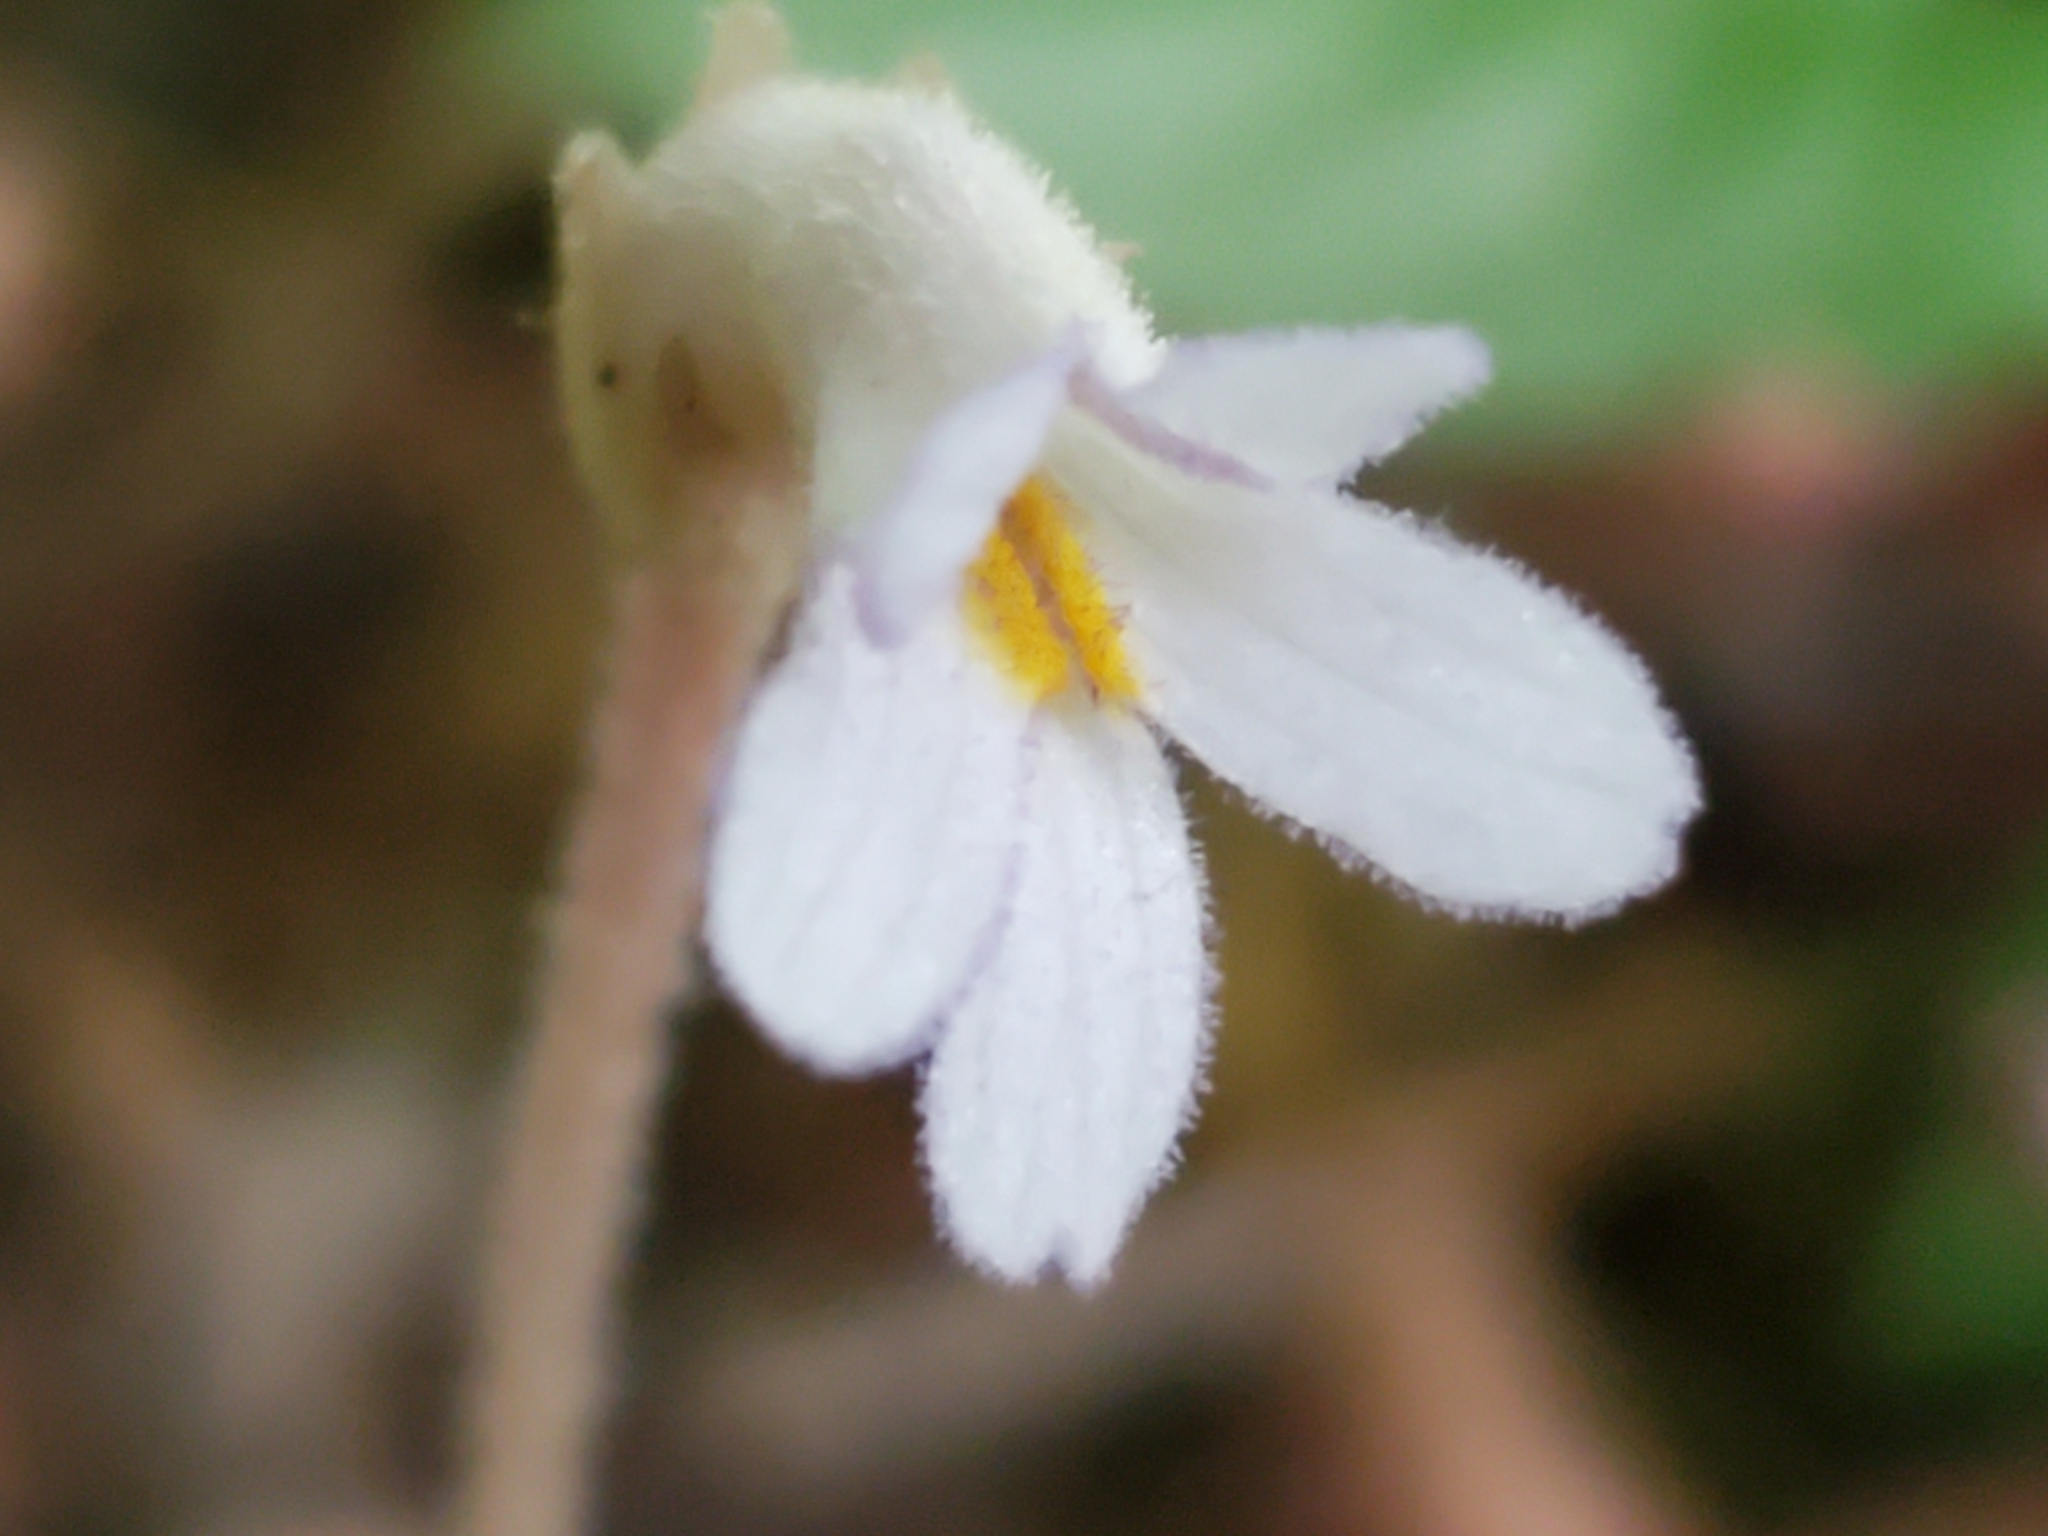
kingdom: Plantae
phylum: Tracheophyta
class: Magnoliopsida
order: Lamiales
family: Orobanchaceae
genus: Aphyllon
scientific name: Aphyllon uniflorum
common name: One-flowered broomrape
